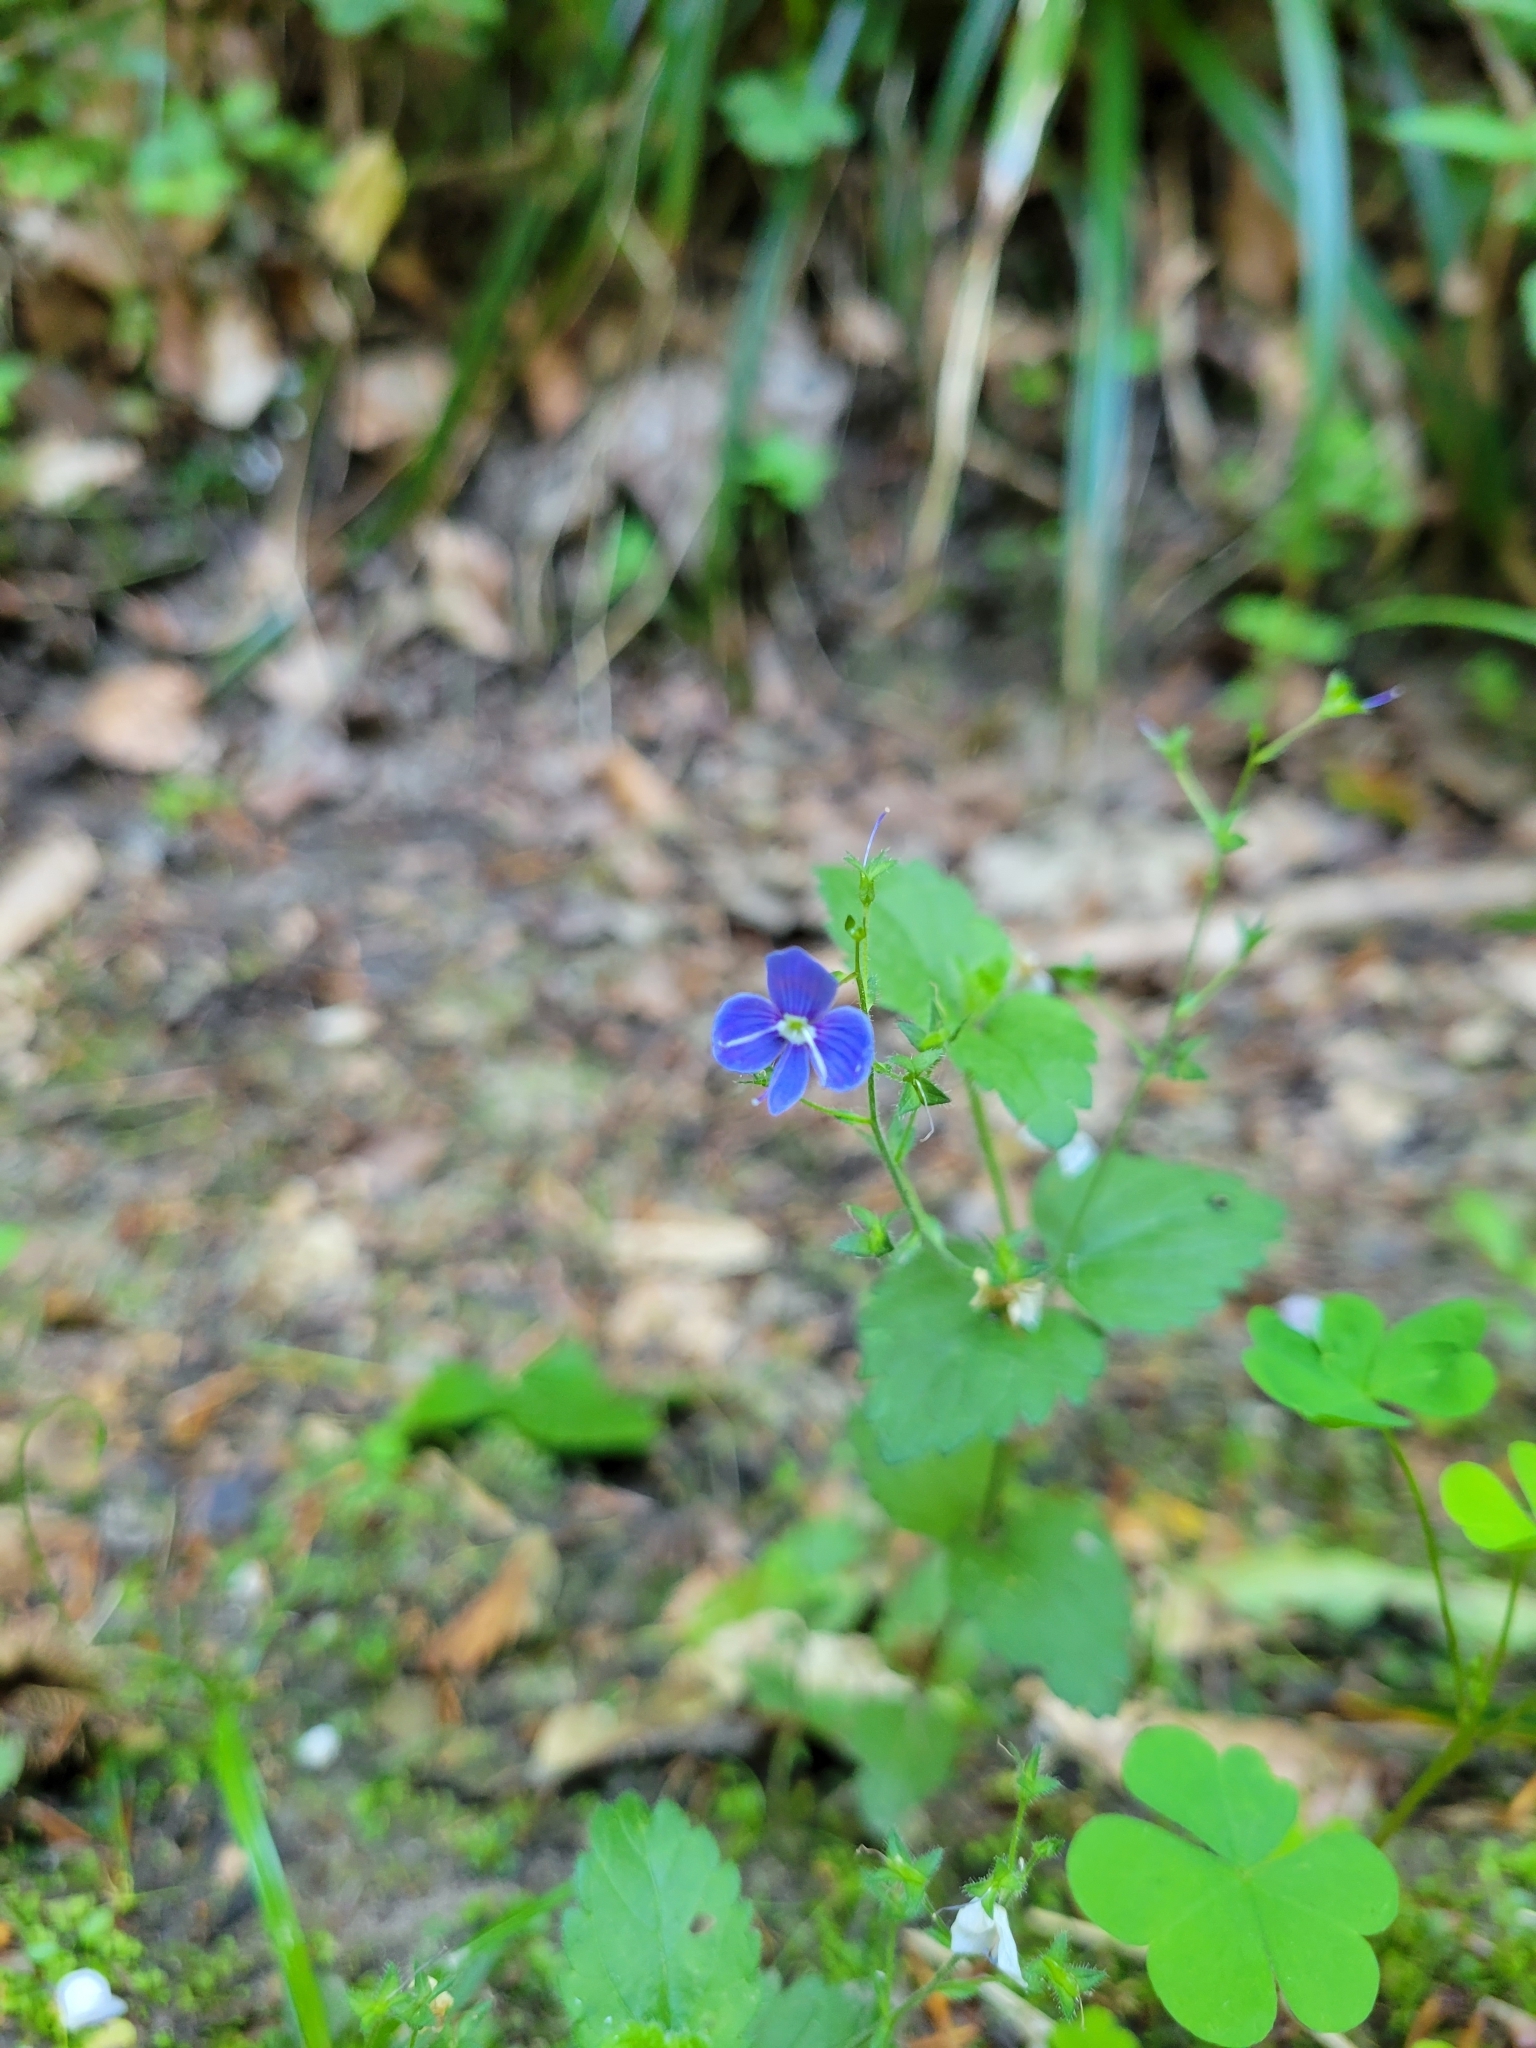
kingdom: Plantae
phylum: Tracheophyta
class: Magnoliopsida
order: Lamiales
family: Plantaginaceae
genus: Veronica
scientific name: Veronica chamaedrys
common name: Germander speedwell
